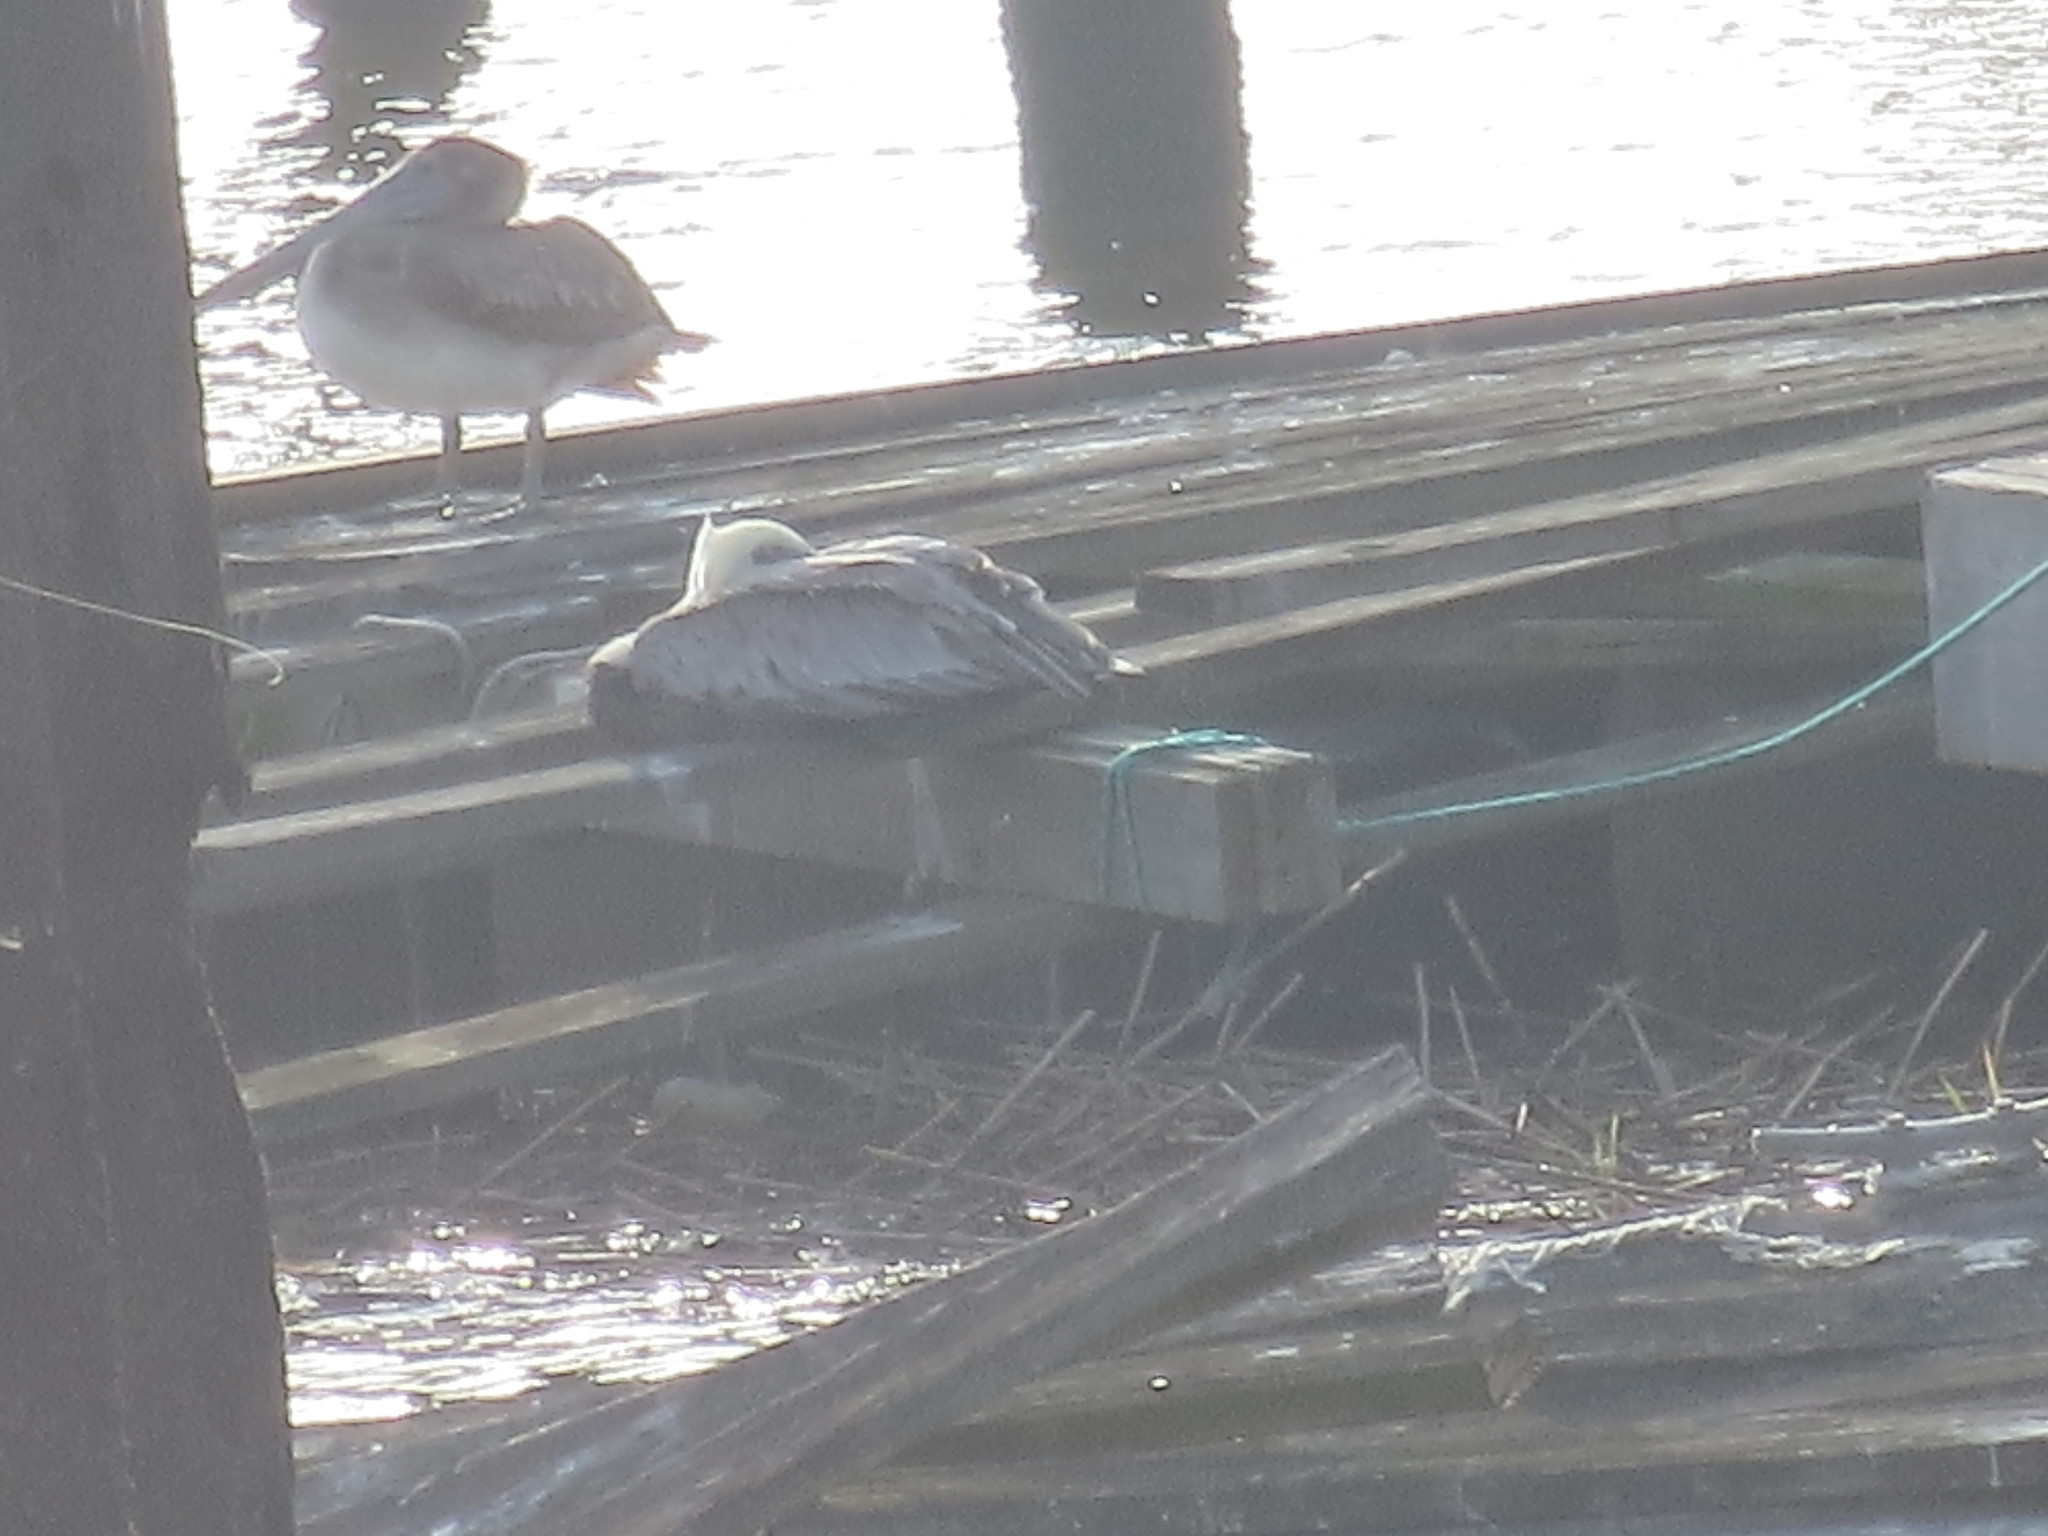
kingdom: Animalia
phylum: Chordata
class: Aves
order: Pelecaniformes
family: Pelecanidae
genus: Pelecanus
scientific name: Pelecanus occidentalis
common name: Brown pelican
